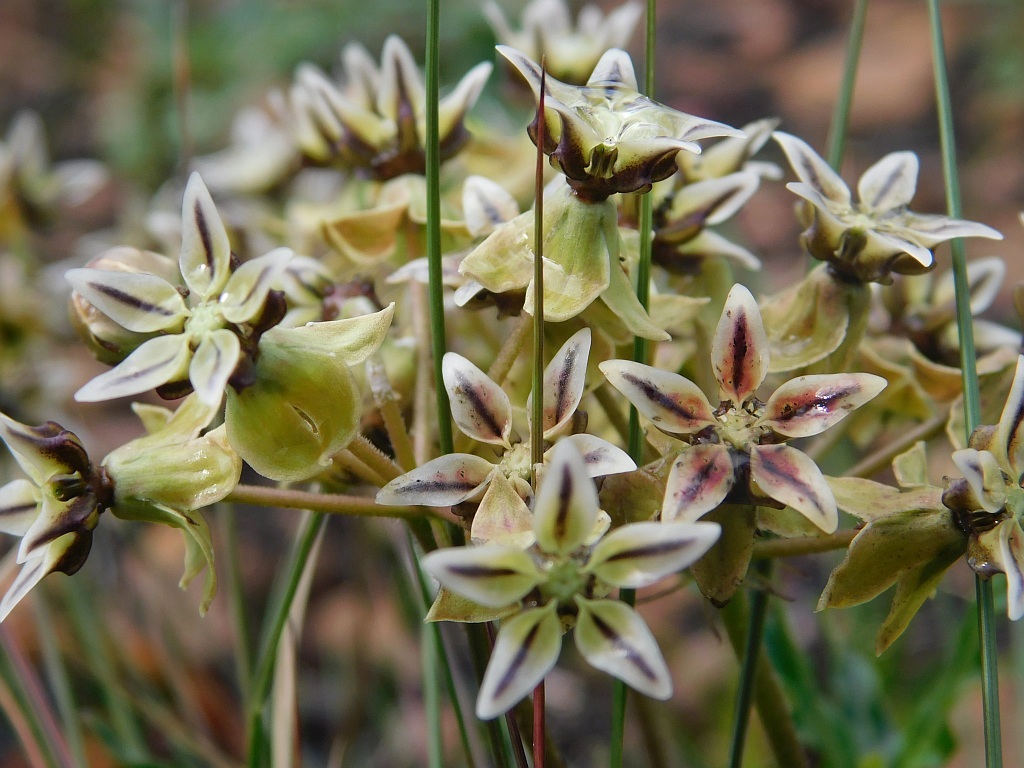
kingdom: Plantae
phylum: Tracheophyta
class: Magnoliopsida
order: Gentianales
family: Apocynaceae
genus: Asclepias
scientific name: Asclepias crispa
